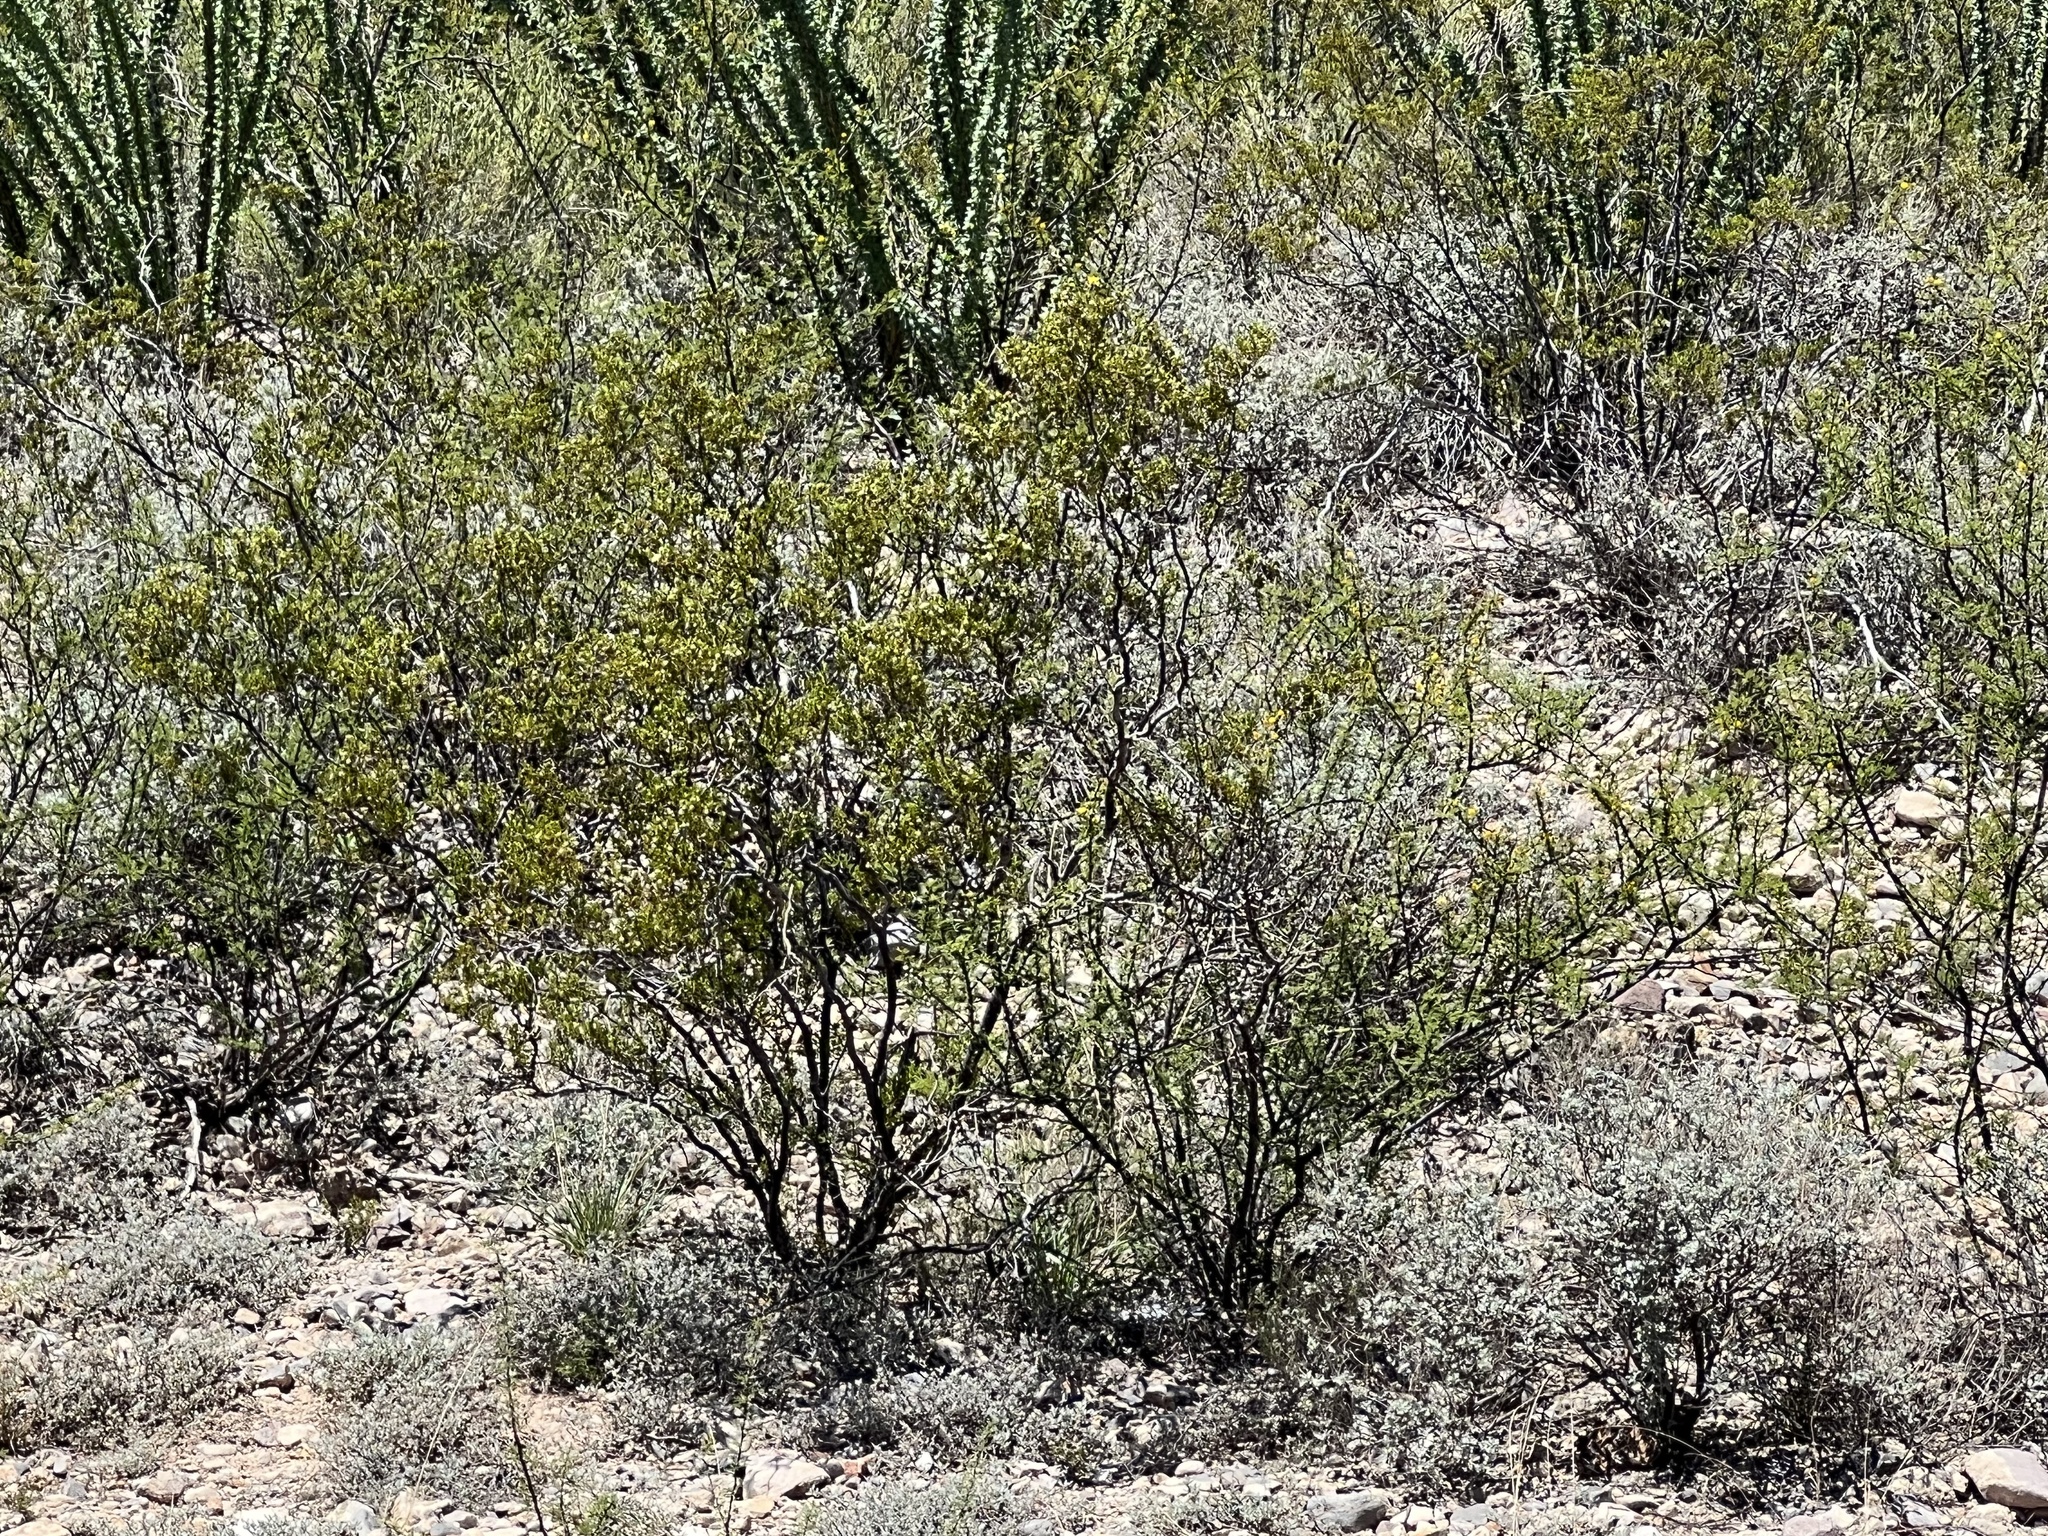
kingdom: Plantae
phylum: Tracheophyta
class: Magnoliopsida
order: Zygophyllales
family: Zygophyllaceae
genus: Larrea
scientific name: Larrea tridentata
